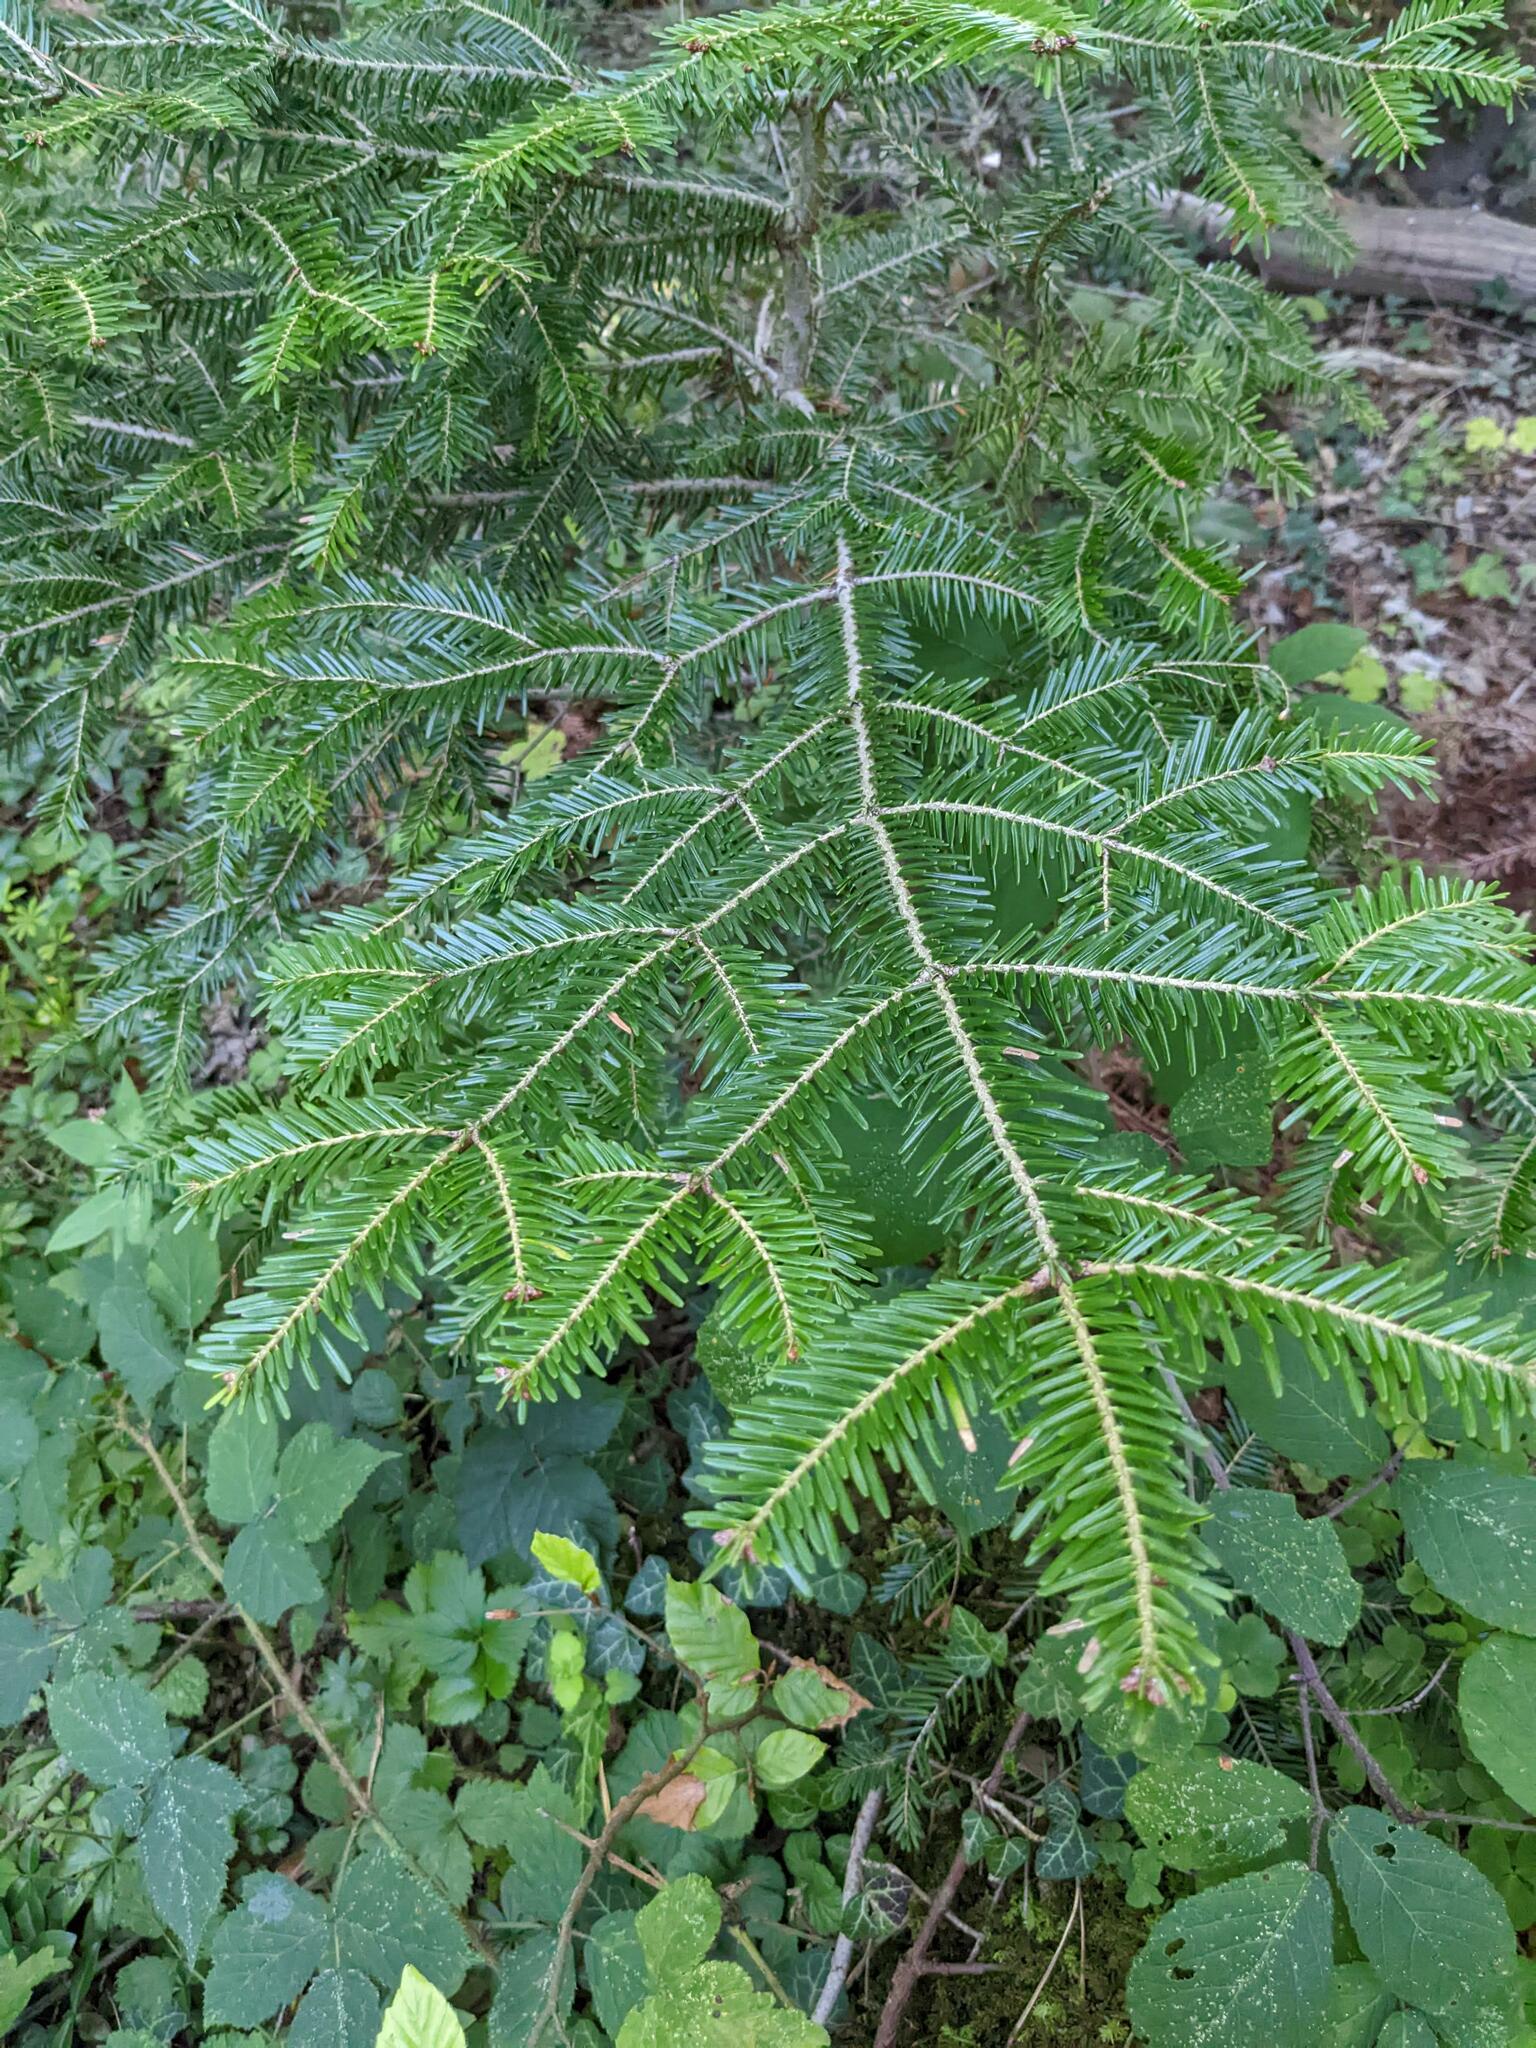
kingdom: Plantae
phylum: Tracheophyta
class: Pinopsida
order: Pinales
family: Pinaceae
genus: Abies
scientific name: Abies alba
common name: Silver fir
